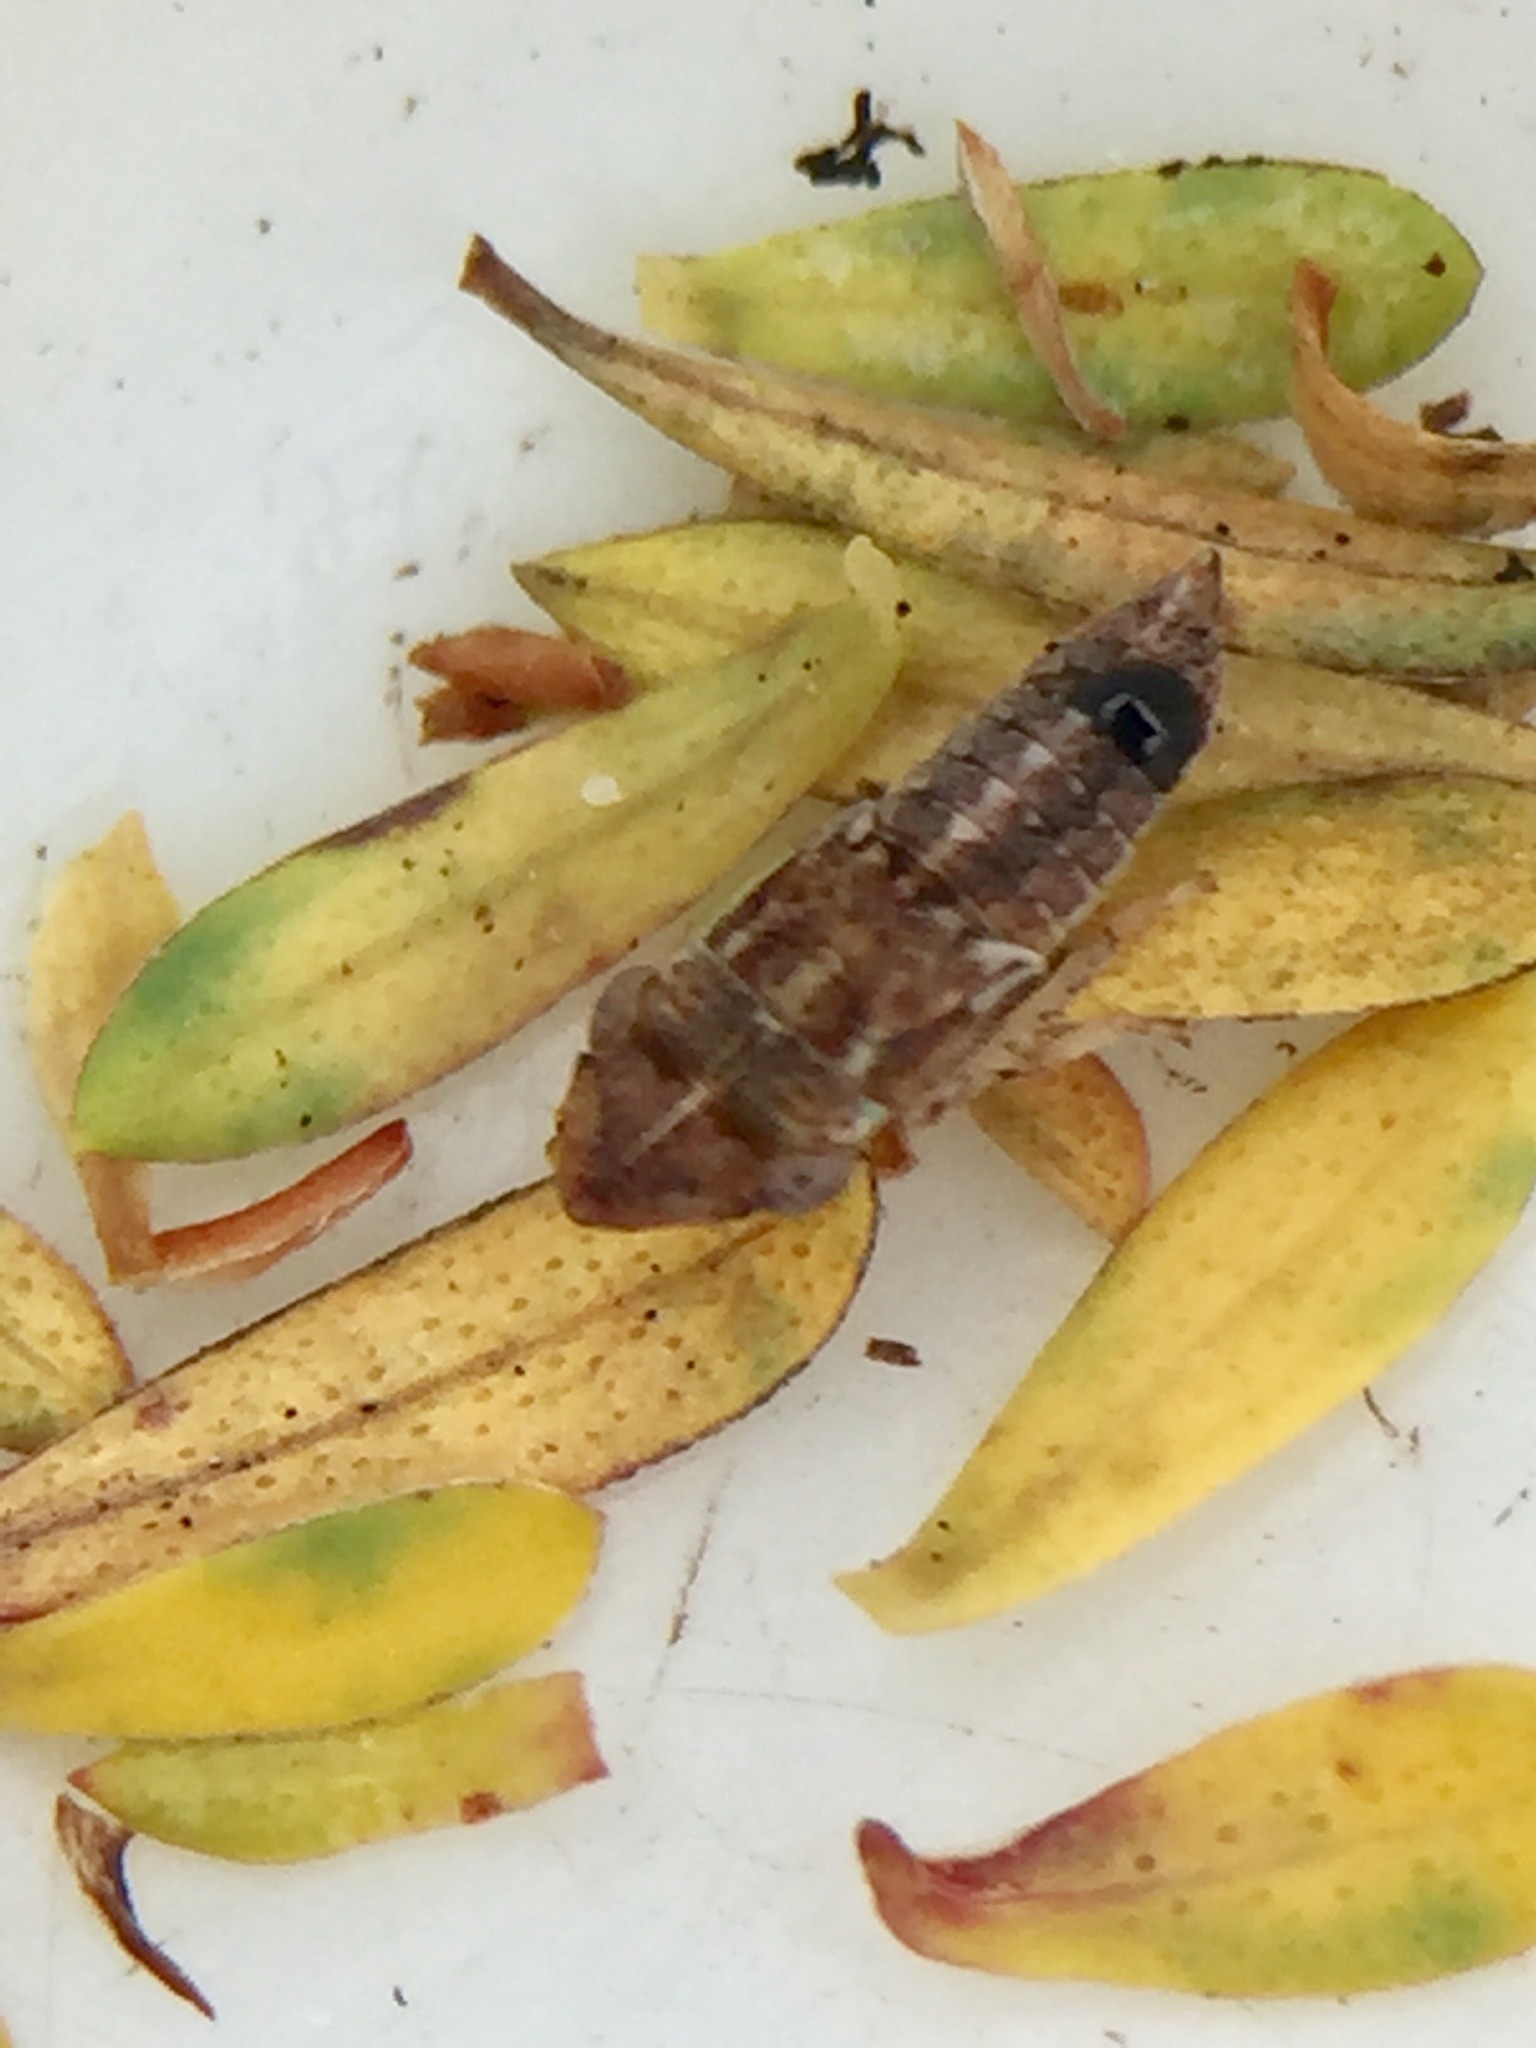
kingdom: Animalia
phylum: Arthropoda
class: Insecta
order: Strepsiptera
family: Halictophagidae
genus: Coriophagus
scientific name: Coriophagus casui
